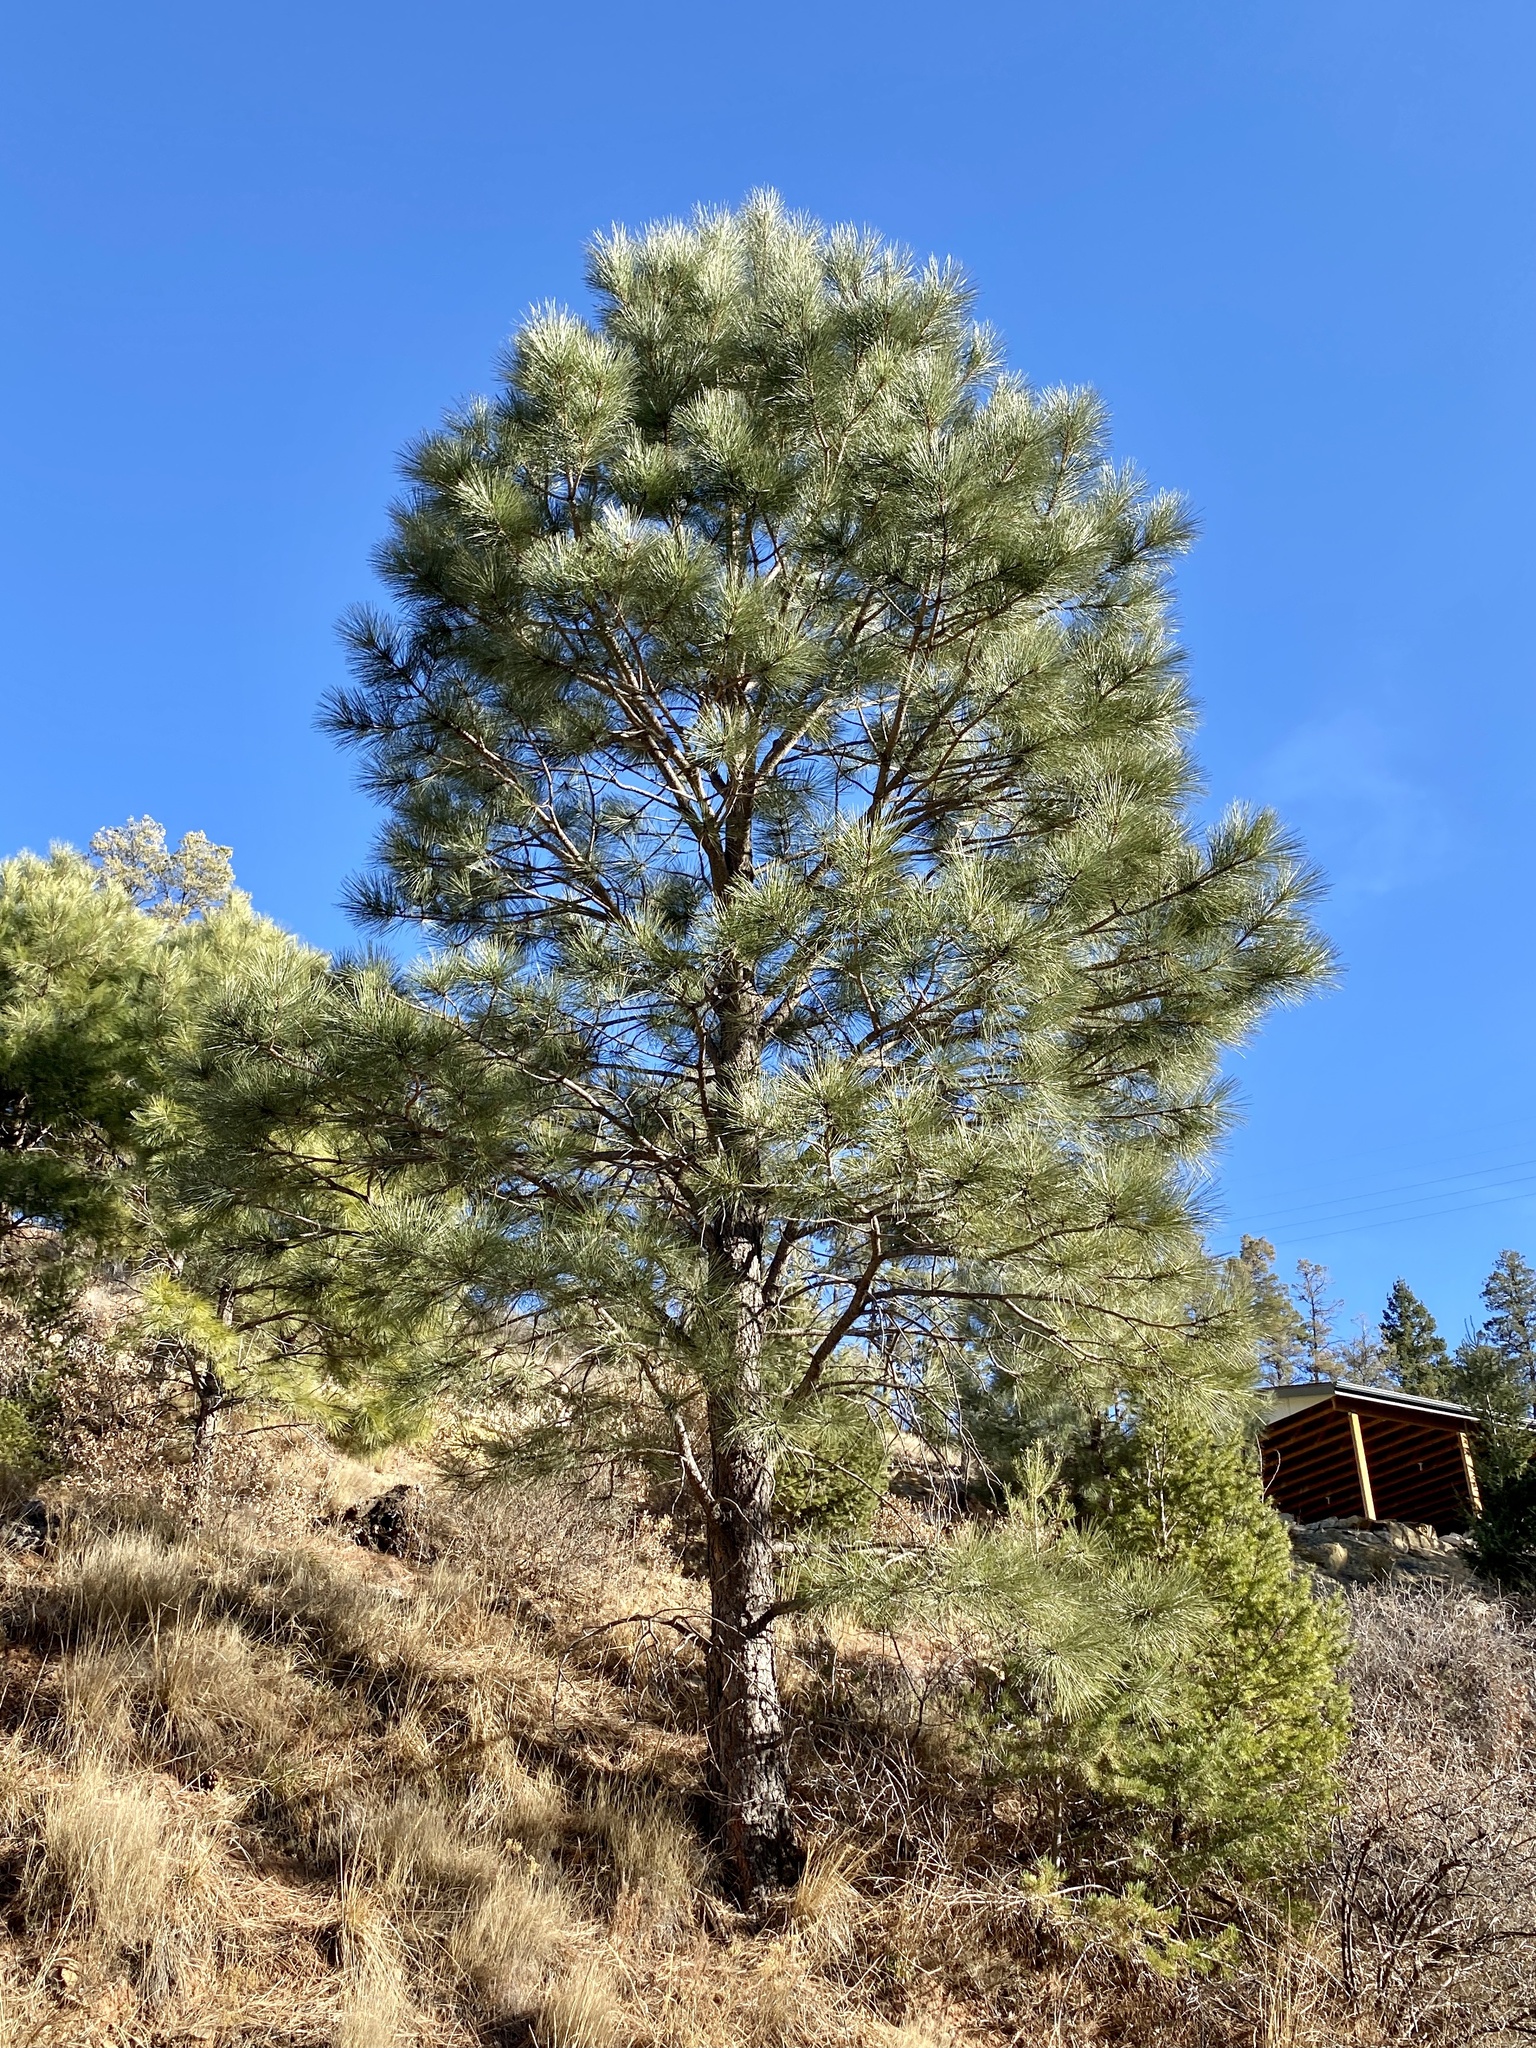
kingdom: Plantae
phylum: Tracheophyta
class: Pinopsida
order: Pinales
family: Pinaceae
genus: Pinus
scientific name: Pinus ponderosa
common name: Western yellow-pine
